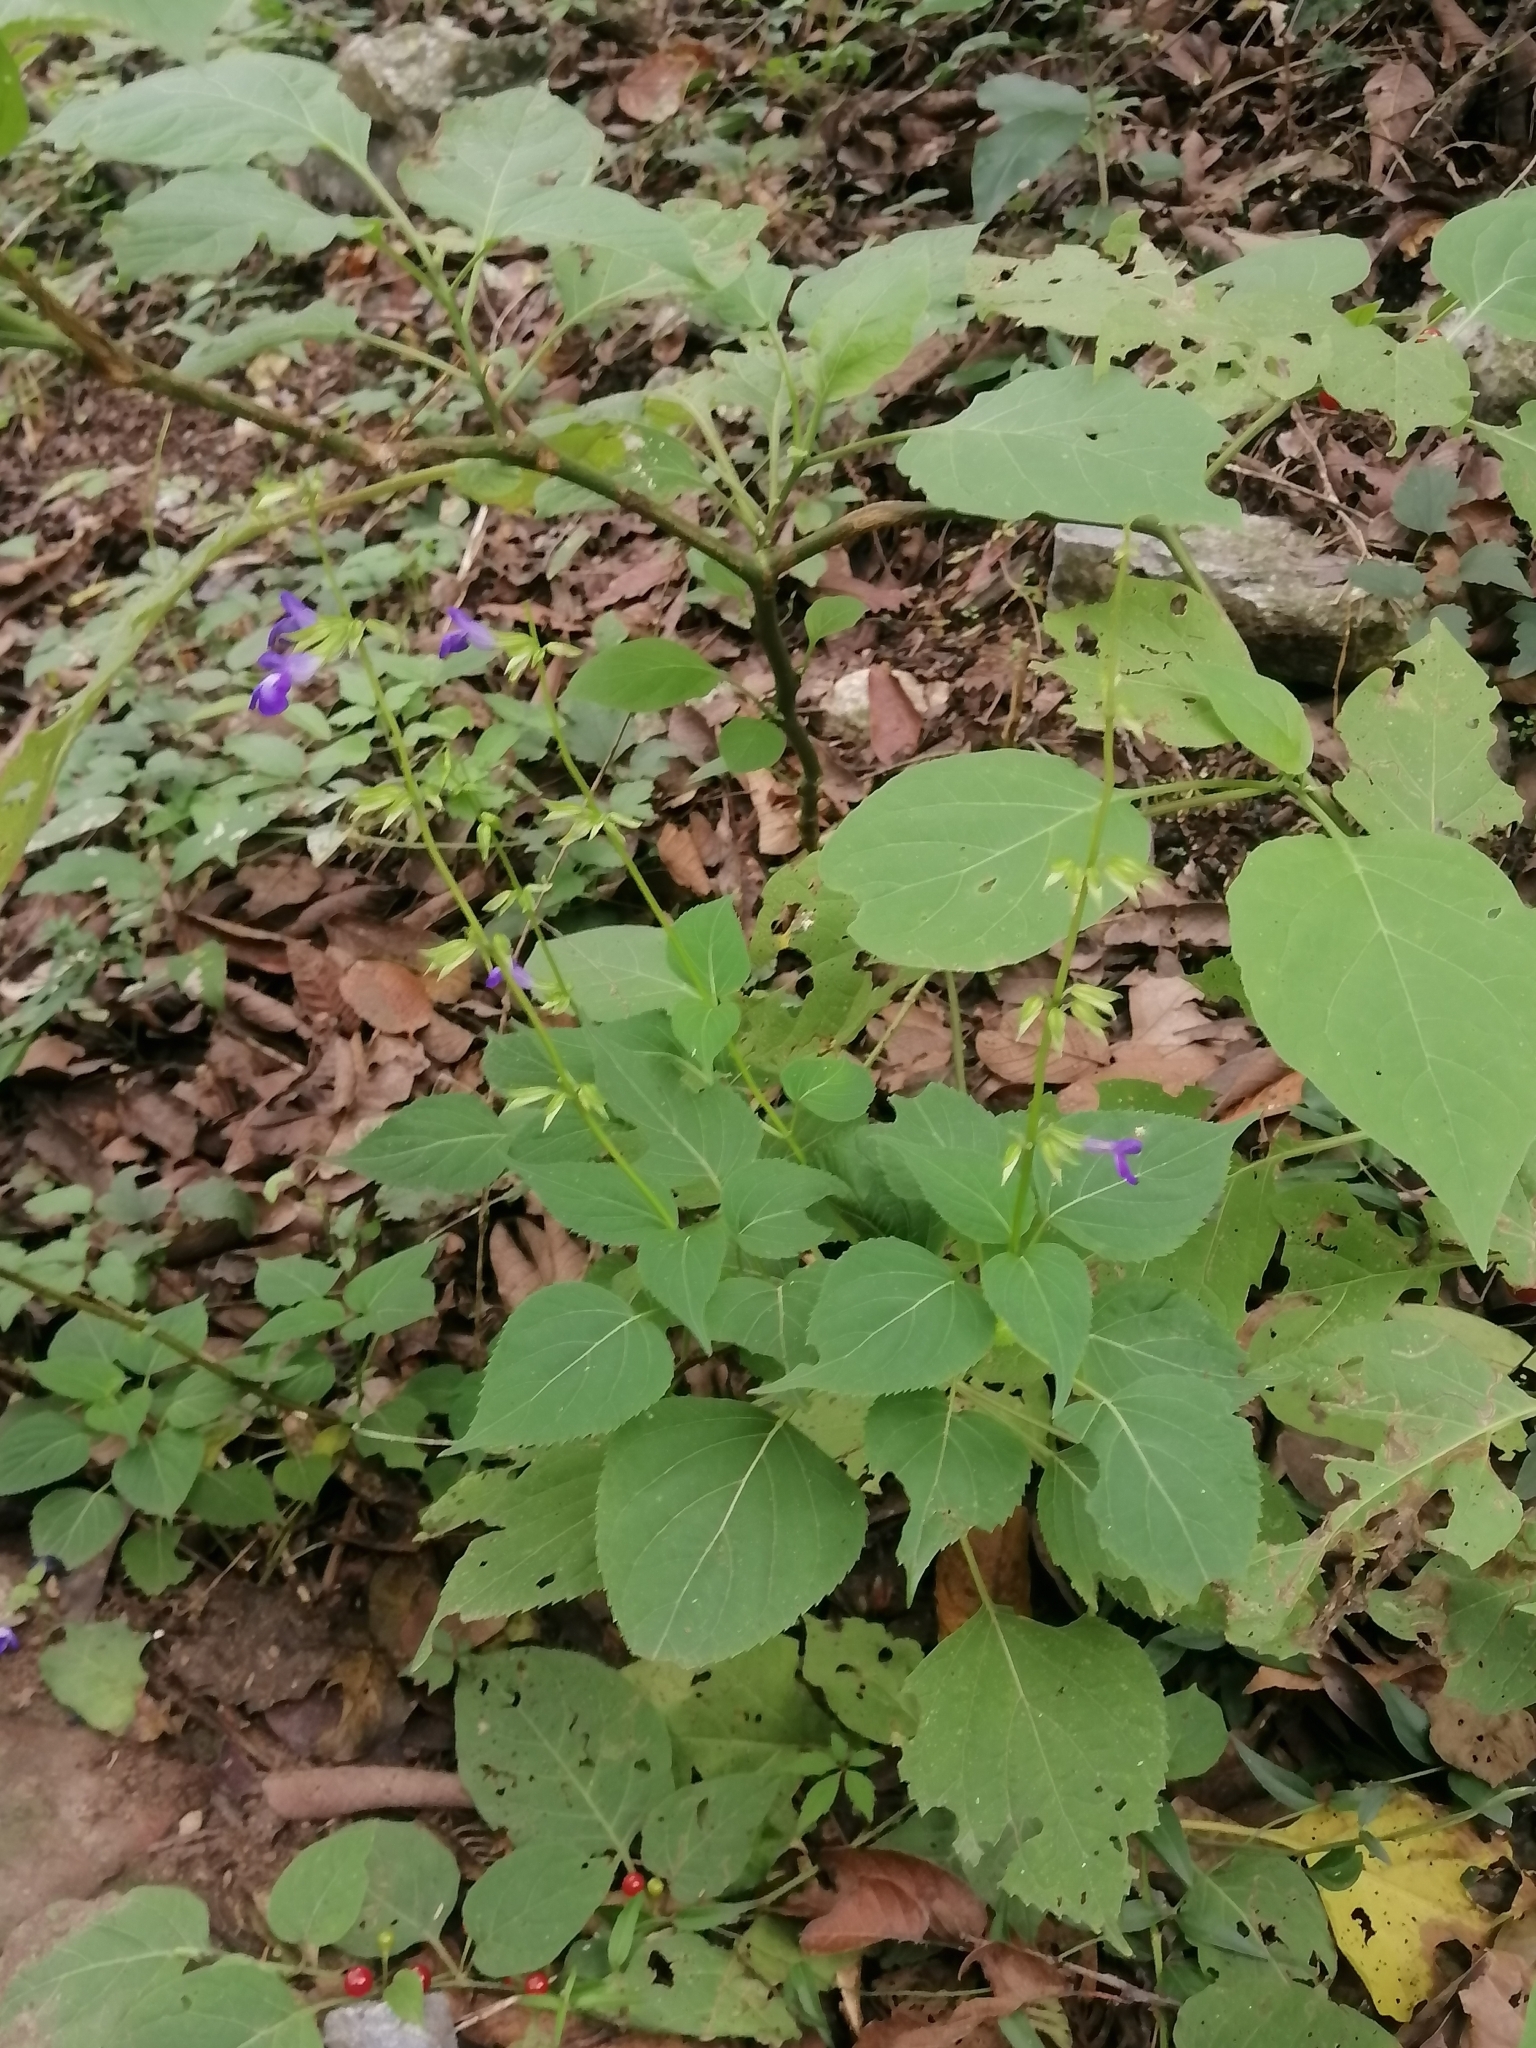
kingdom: Plantae
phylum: Tracheophyta
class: Magnoliopsida
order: Lamiales
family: Lamiaceae
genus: Salvia
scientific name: Salvia caudata
